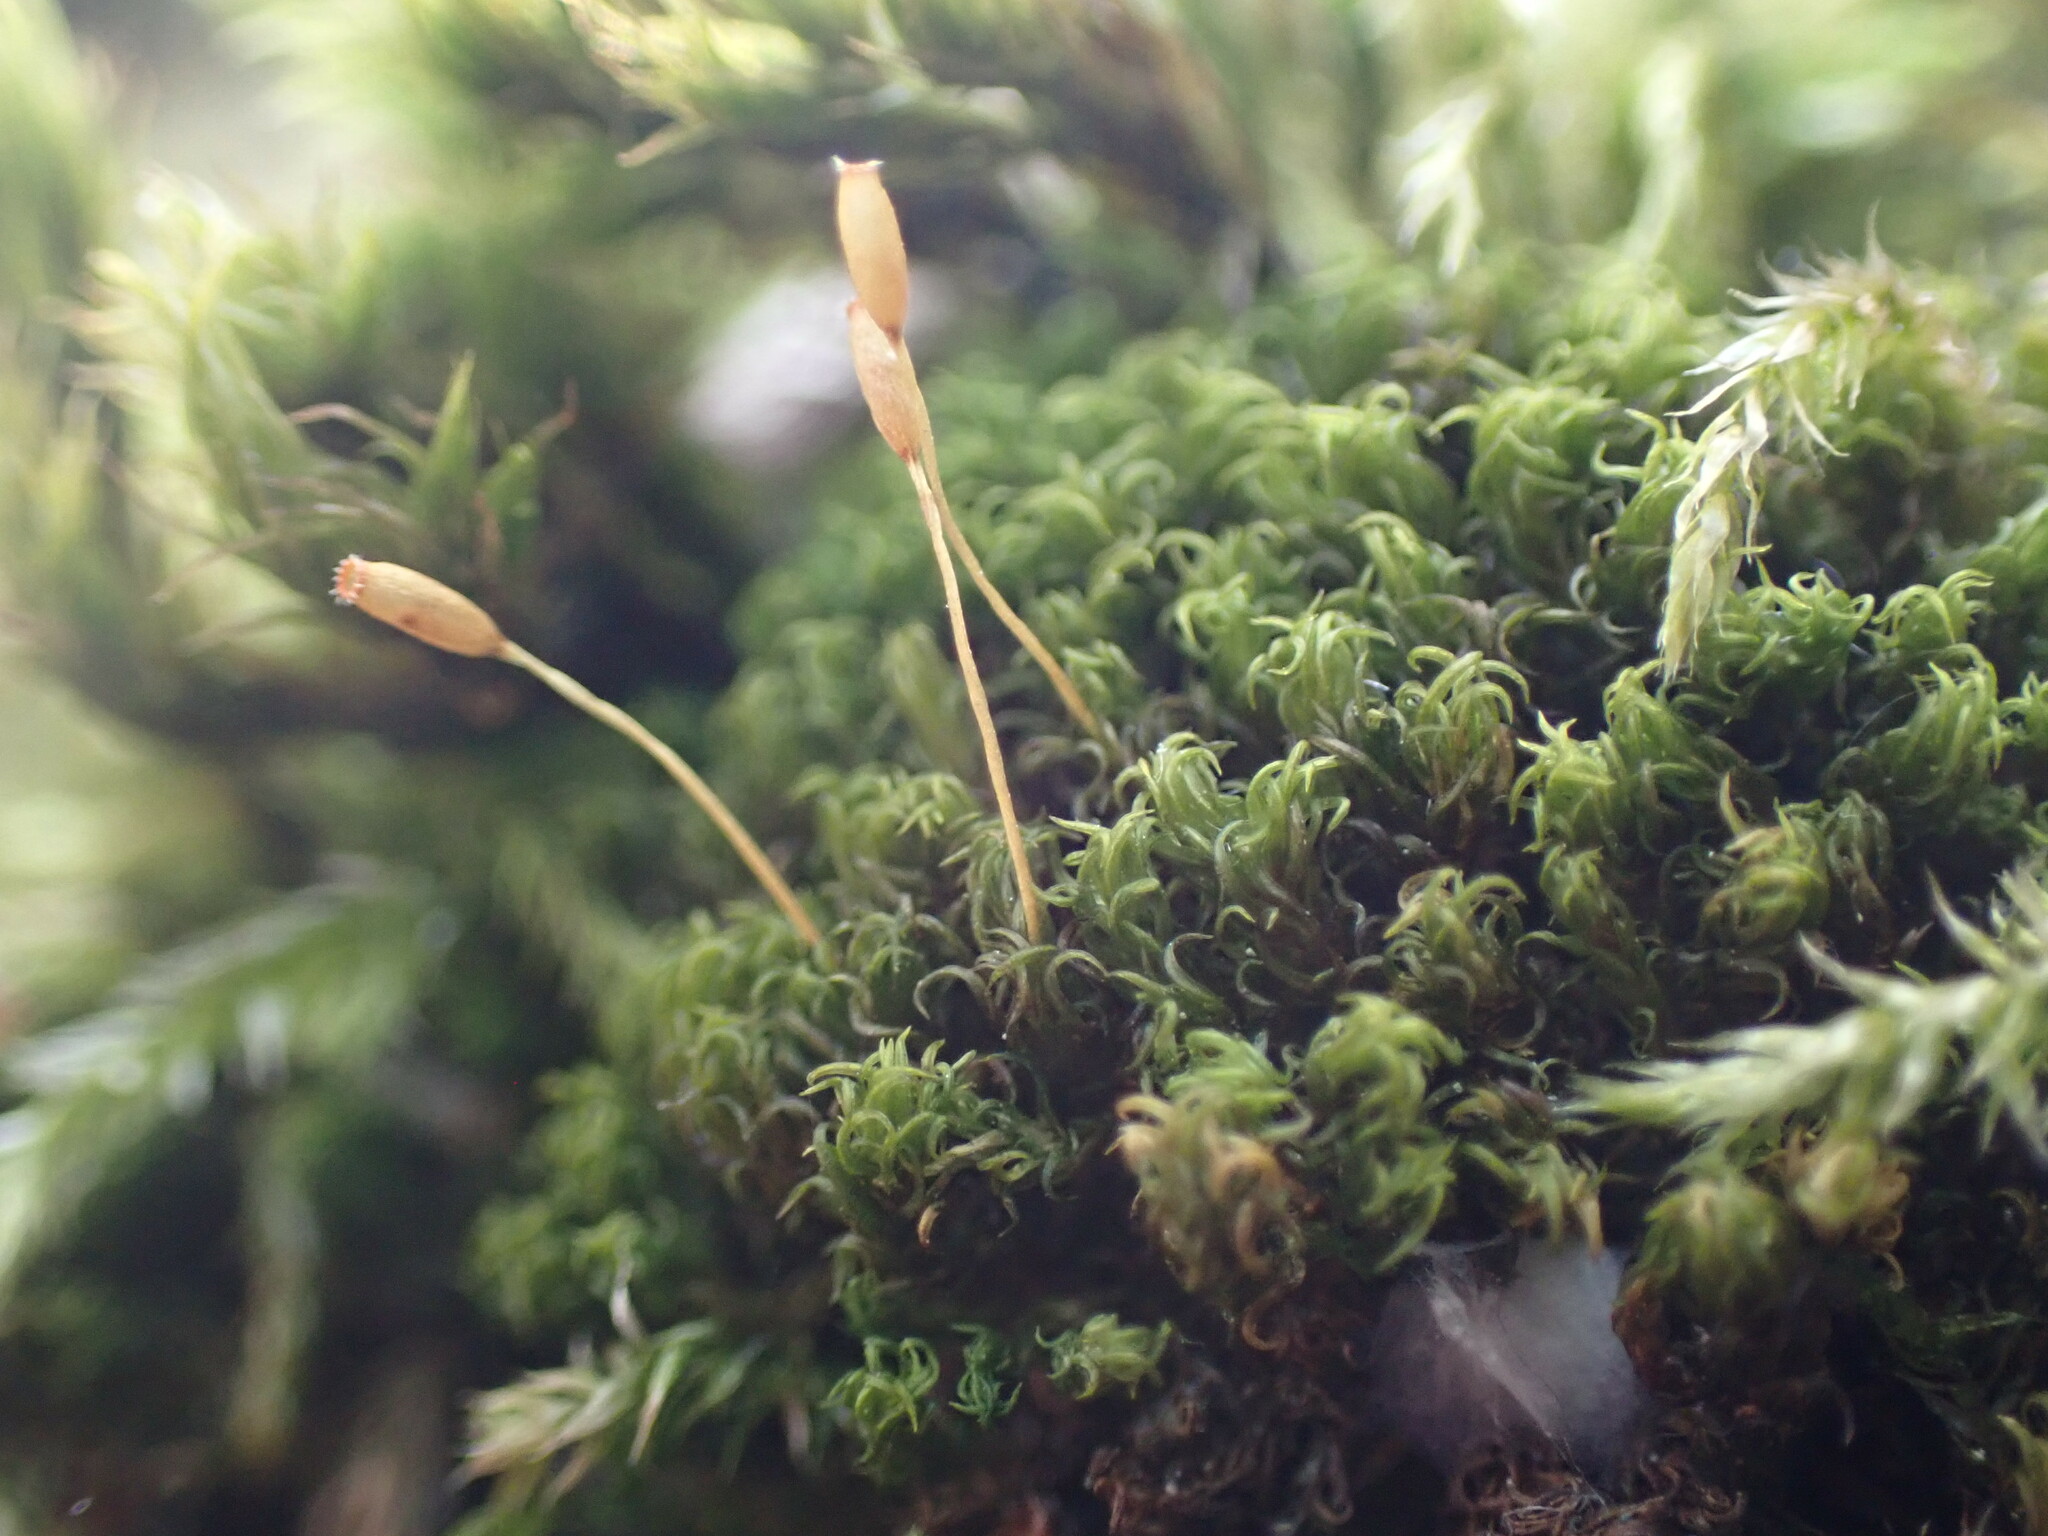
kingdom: Plantae
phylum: Bryophyta
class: Bryopsida
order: Dicranales
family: Rhabdoweisiaceae
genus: Dicranoweisia
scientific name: Dicranoweisia cirrata
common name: Common pincushion
